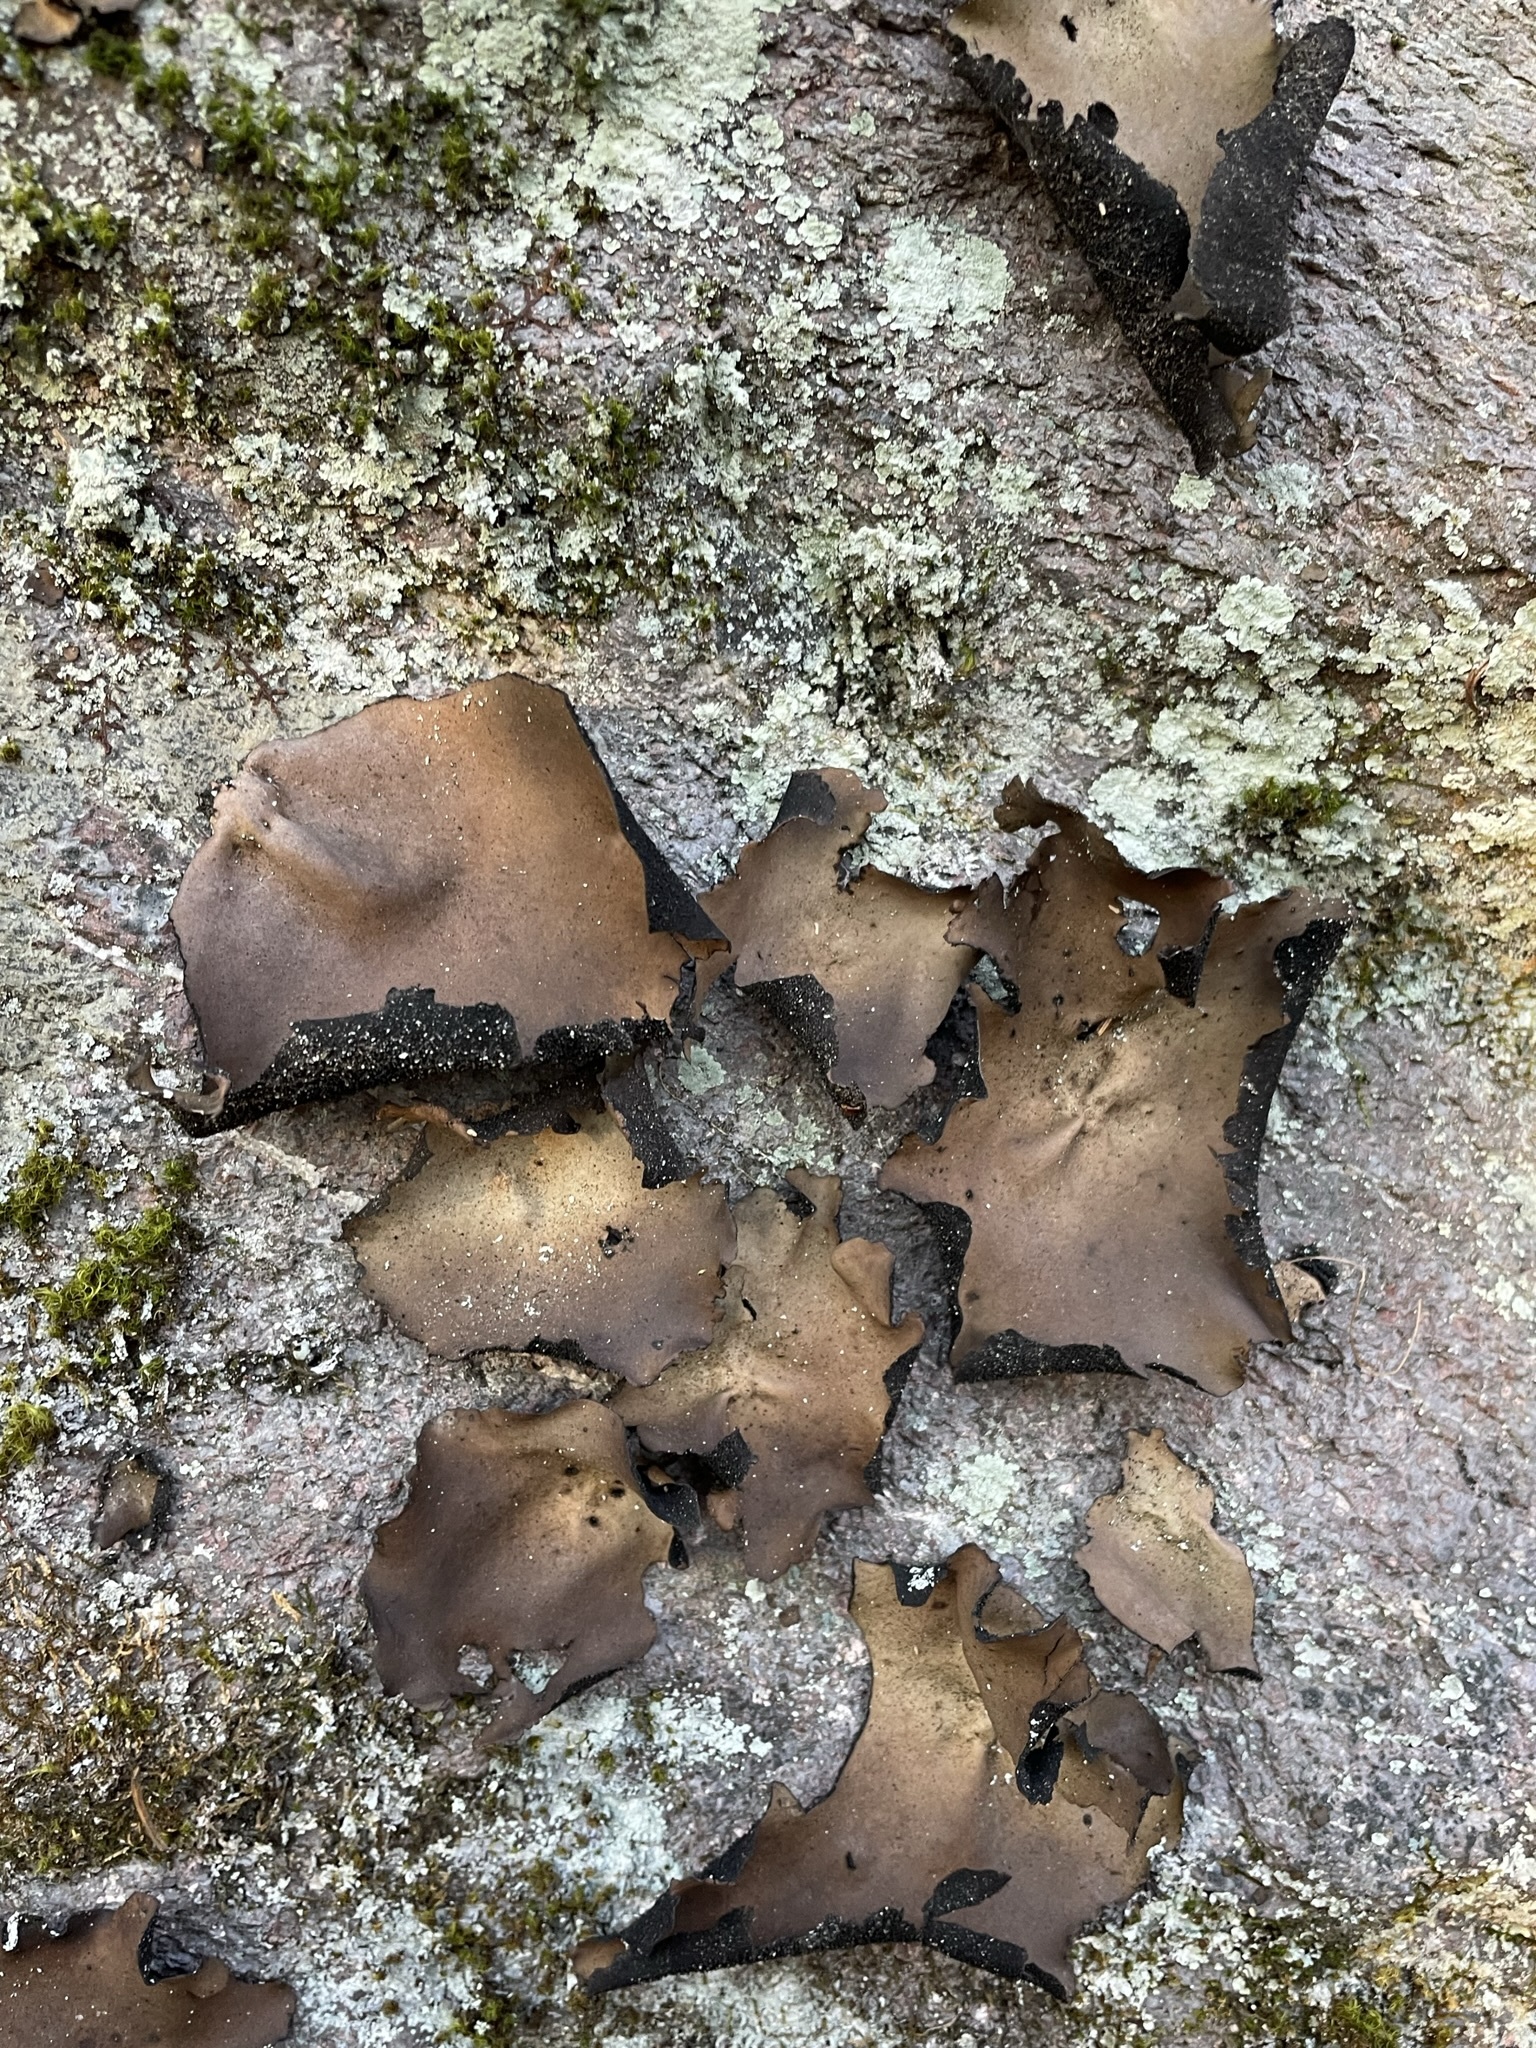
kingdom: Fungi
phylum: Ascomycota
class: Lecanoromycetes
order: Umbilicariales
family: Umbilicariaceae
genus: Umbilicaria
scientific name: Umbilicaria mammulata
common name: Smooth rock tripe
